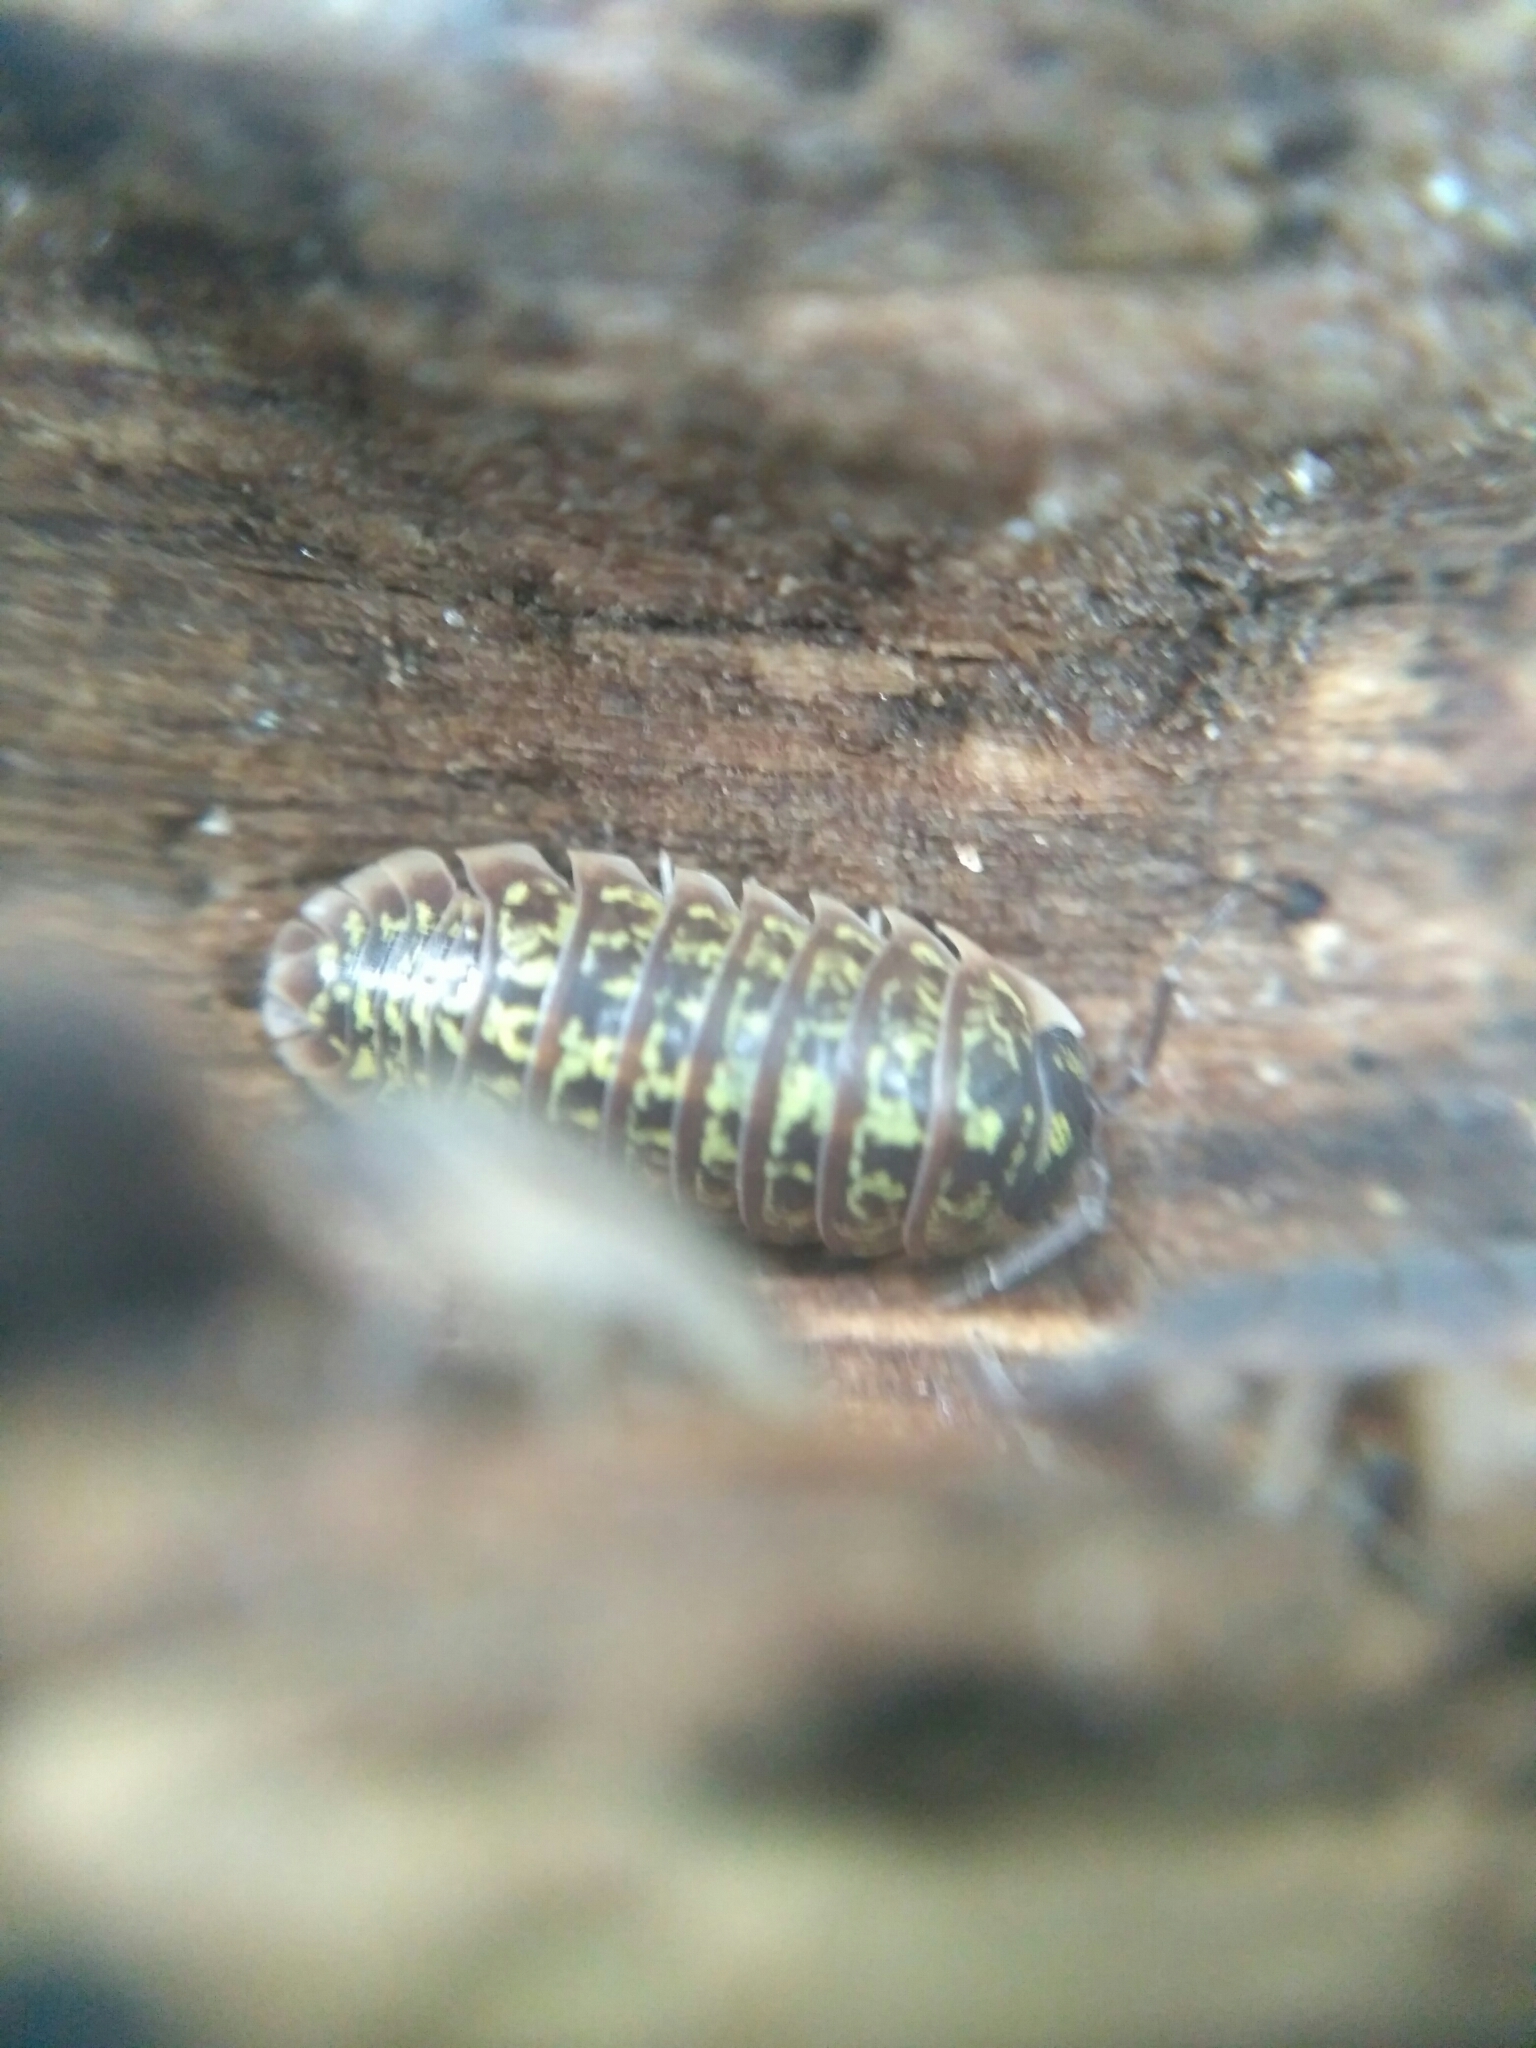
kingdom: Animalia
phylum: Arthropoda
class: Malacostraca
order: Isopoda
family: Armadillidiidae
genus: Armadillidium
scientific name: Armadillidium versicolor
